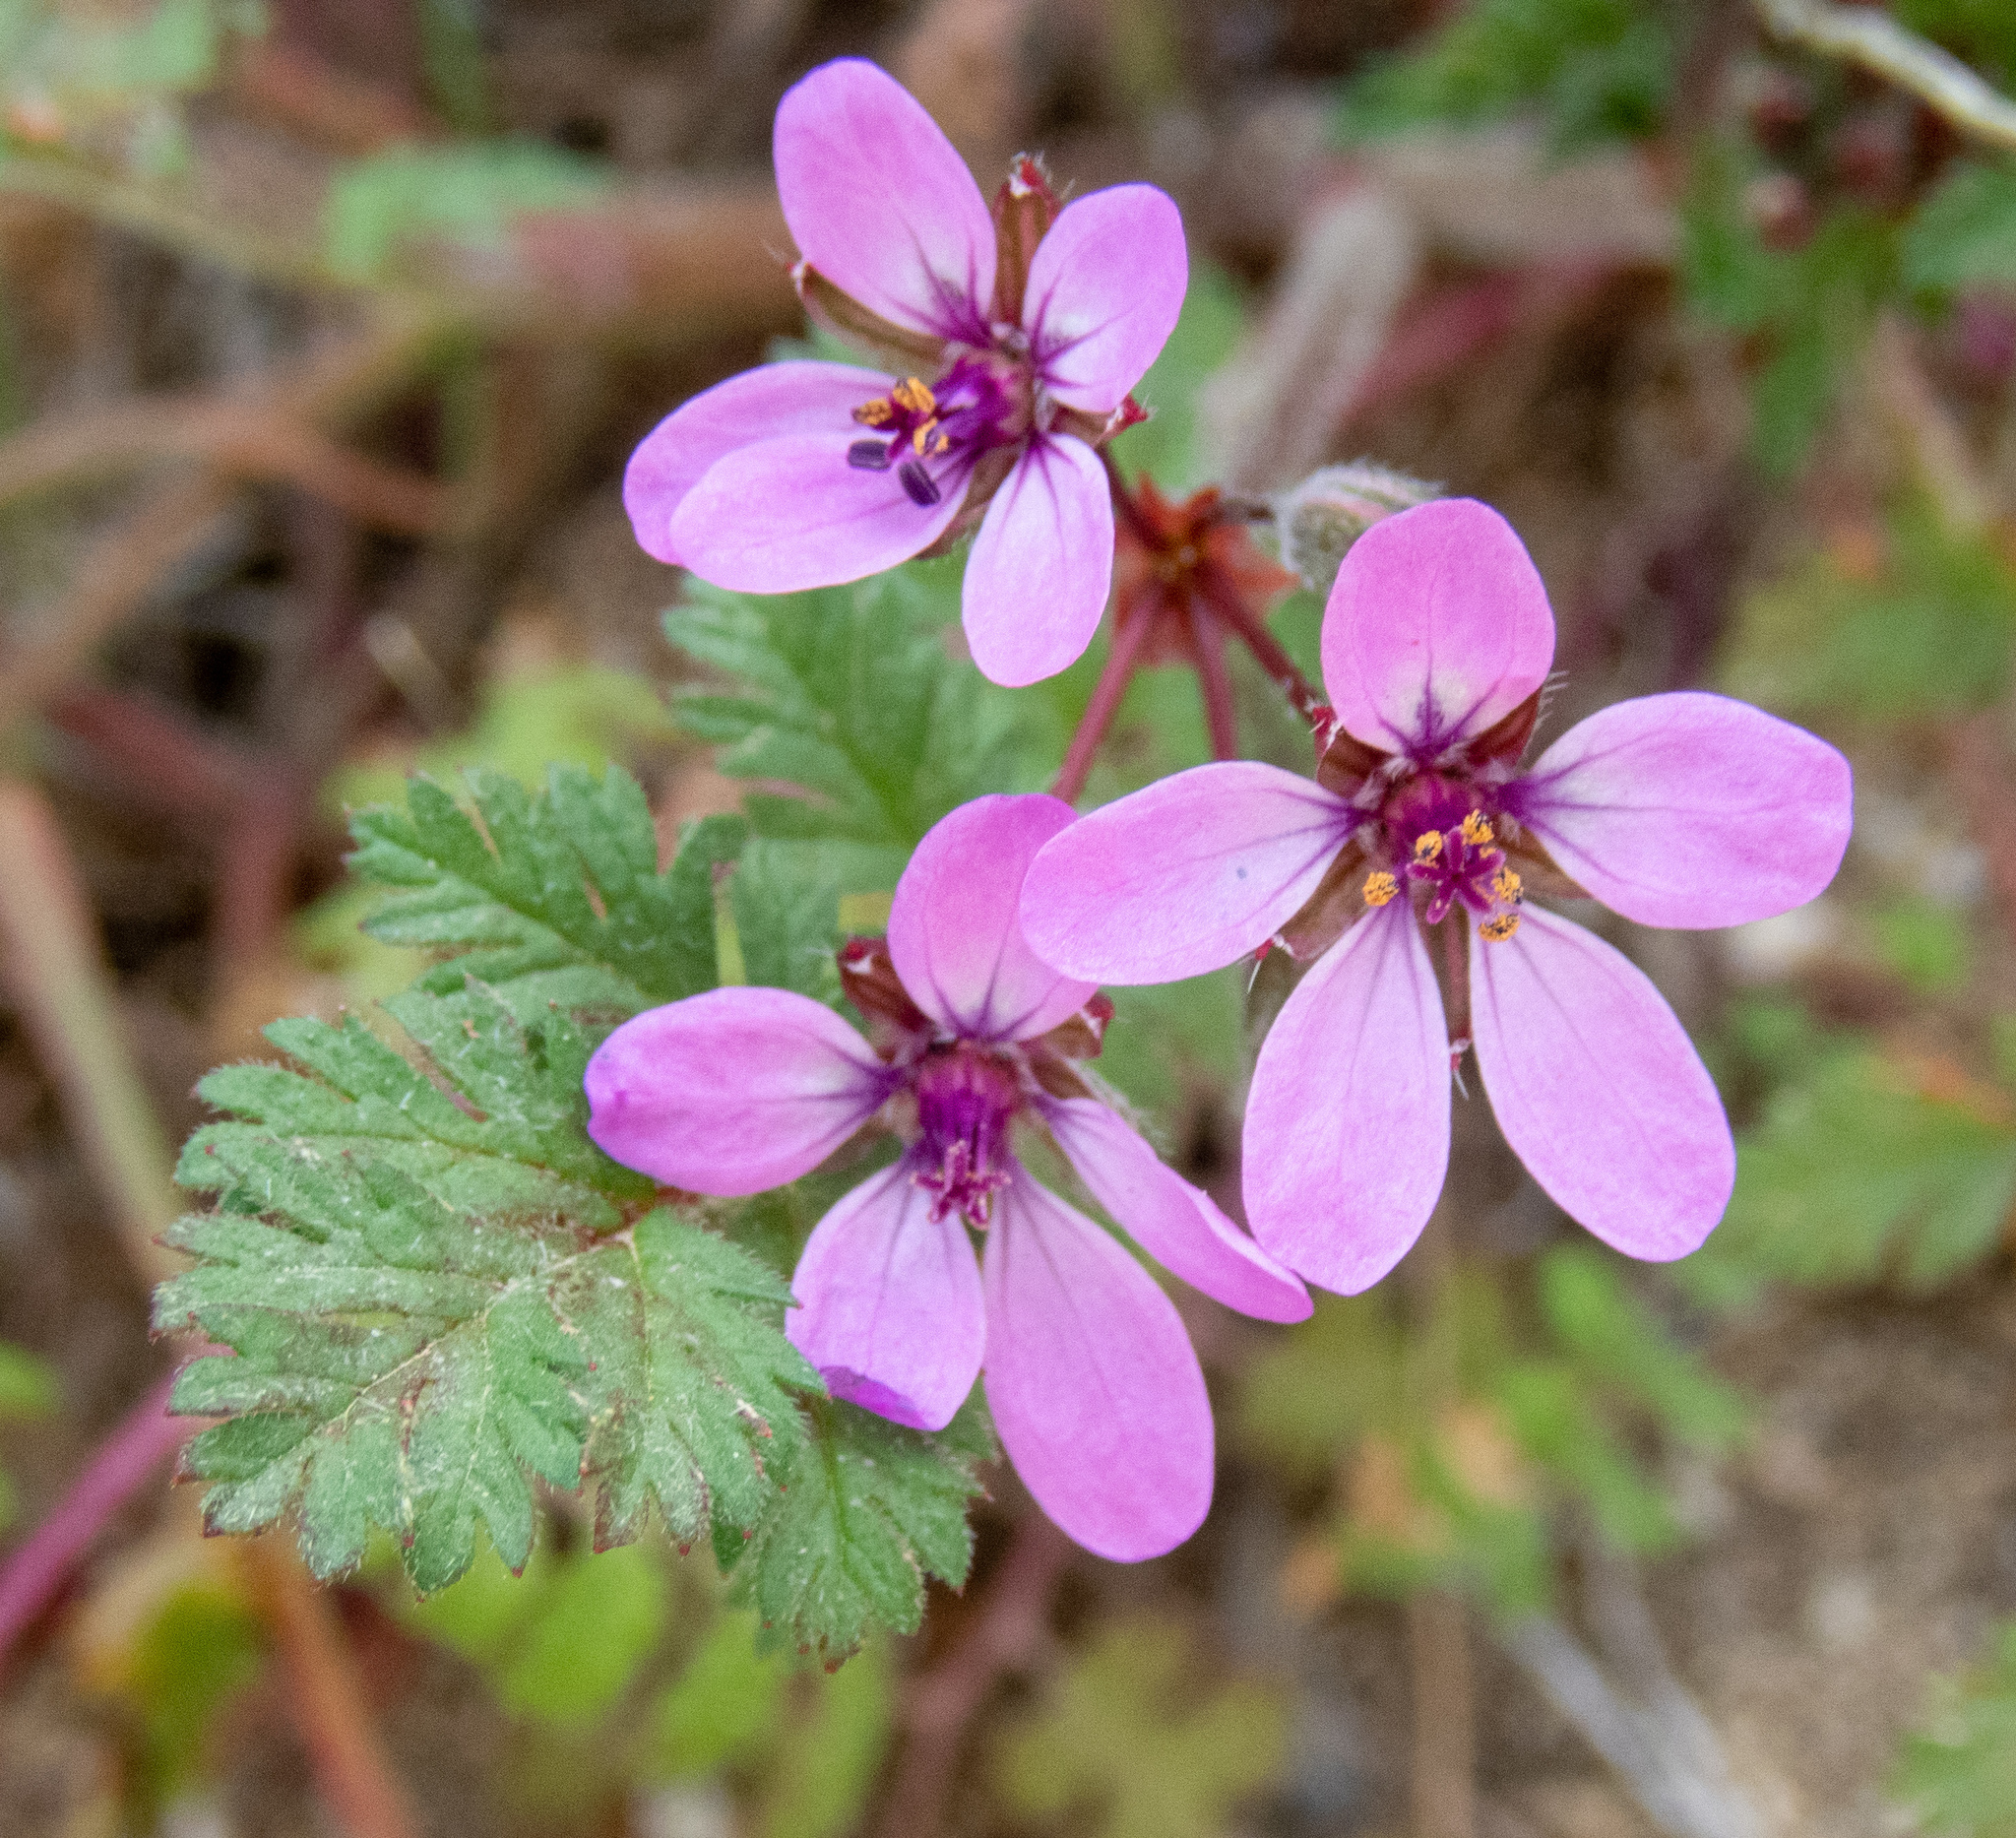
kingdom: Plantae
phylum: Tracheophyta
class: Magnoliopsida
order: Geraniales
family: Geraniaceae
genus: Erodium
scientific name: Erodium cicutarium
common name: Common stork's-bill
